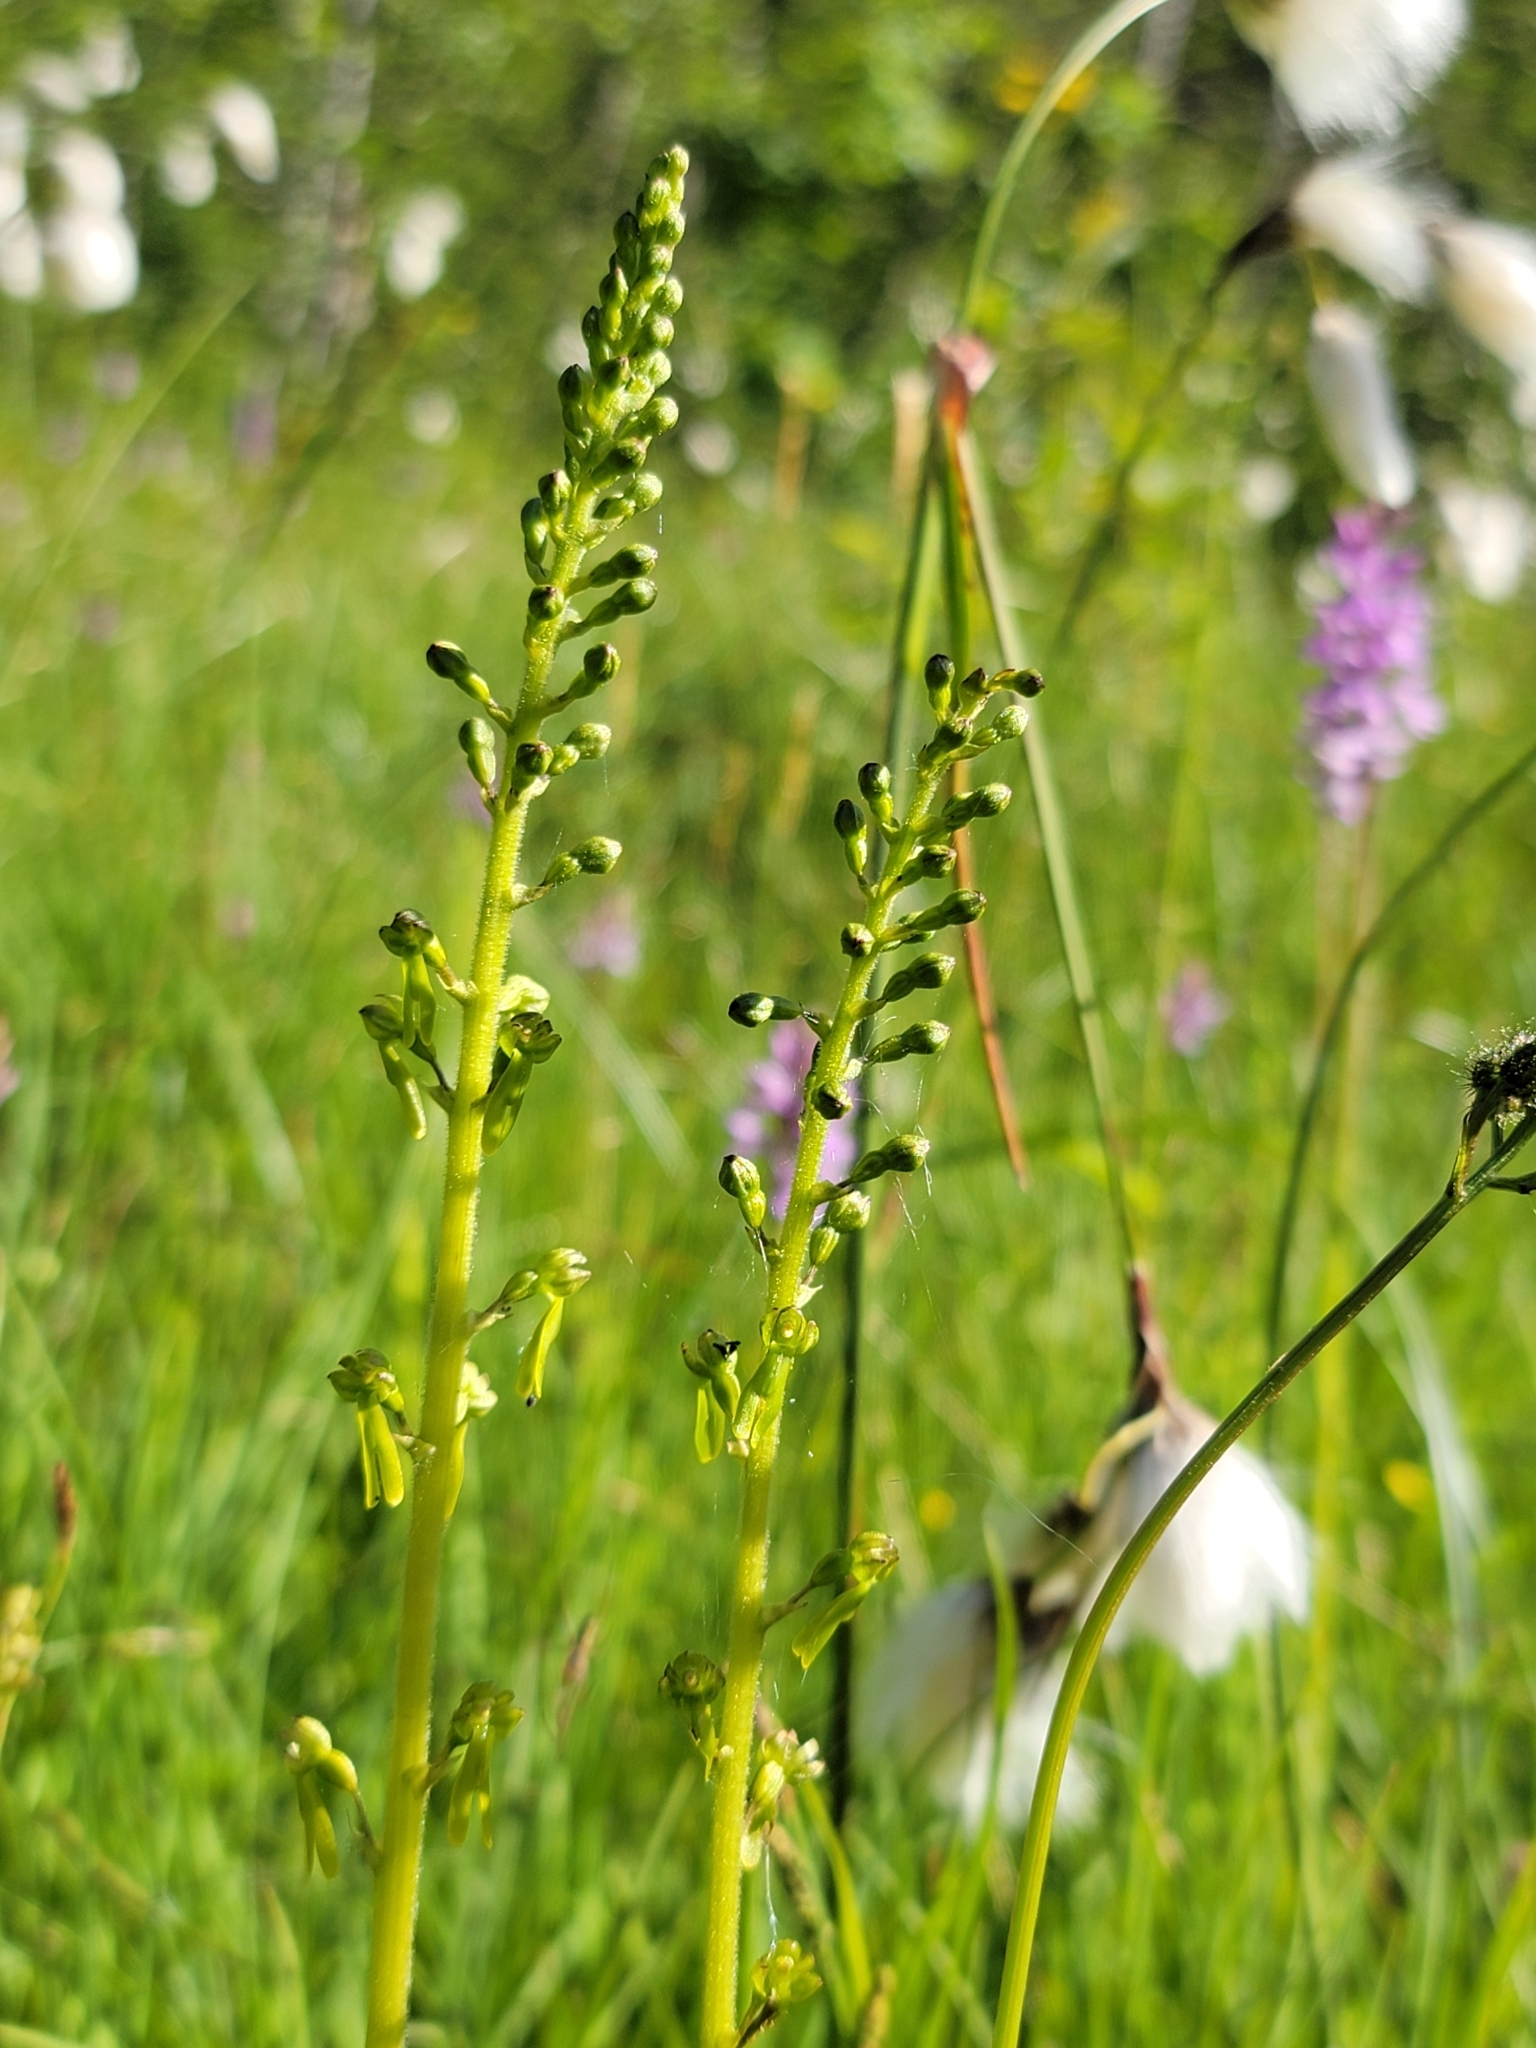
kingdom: Plantae
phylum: Tracheophyta
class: Liliopsida
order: Asparagales
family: Orchidaceae
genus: Neottia
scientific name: Neottia ovata
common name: Common twayblade
